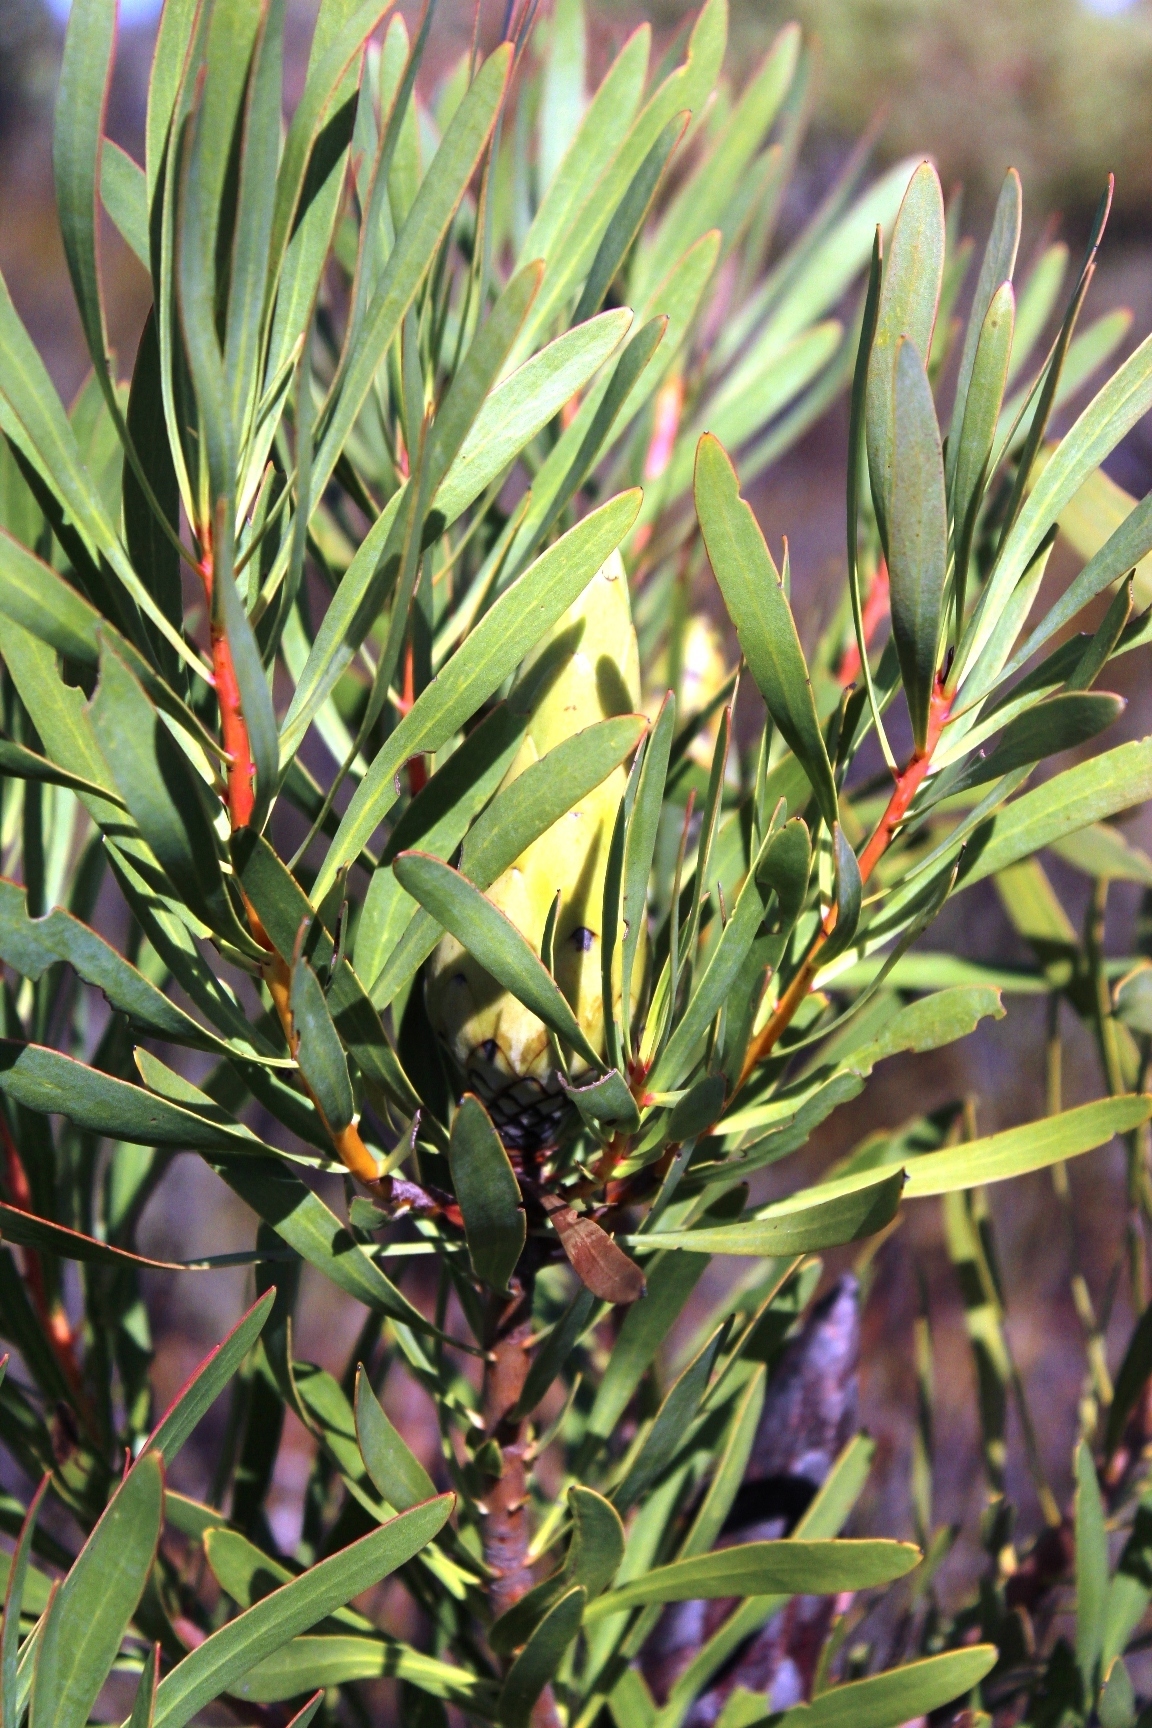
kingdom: Plantae
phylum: Tracheophyta
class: Magnoliopsida
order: Proteales
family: Proteaceae
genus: Protea
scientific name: Protea repens
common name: Sugarbush
